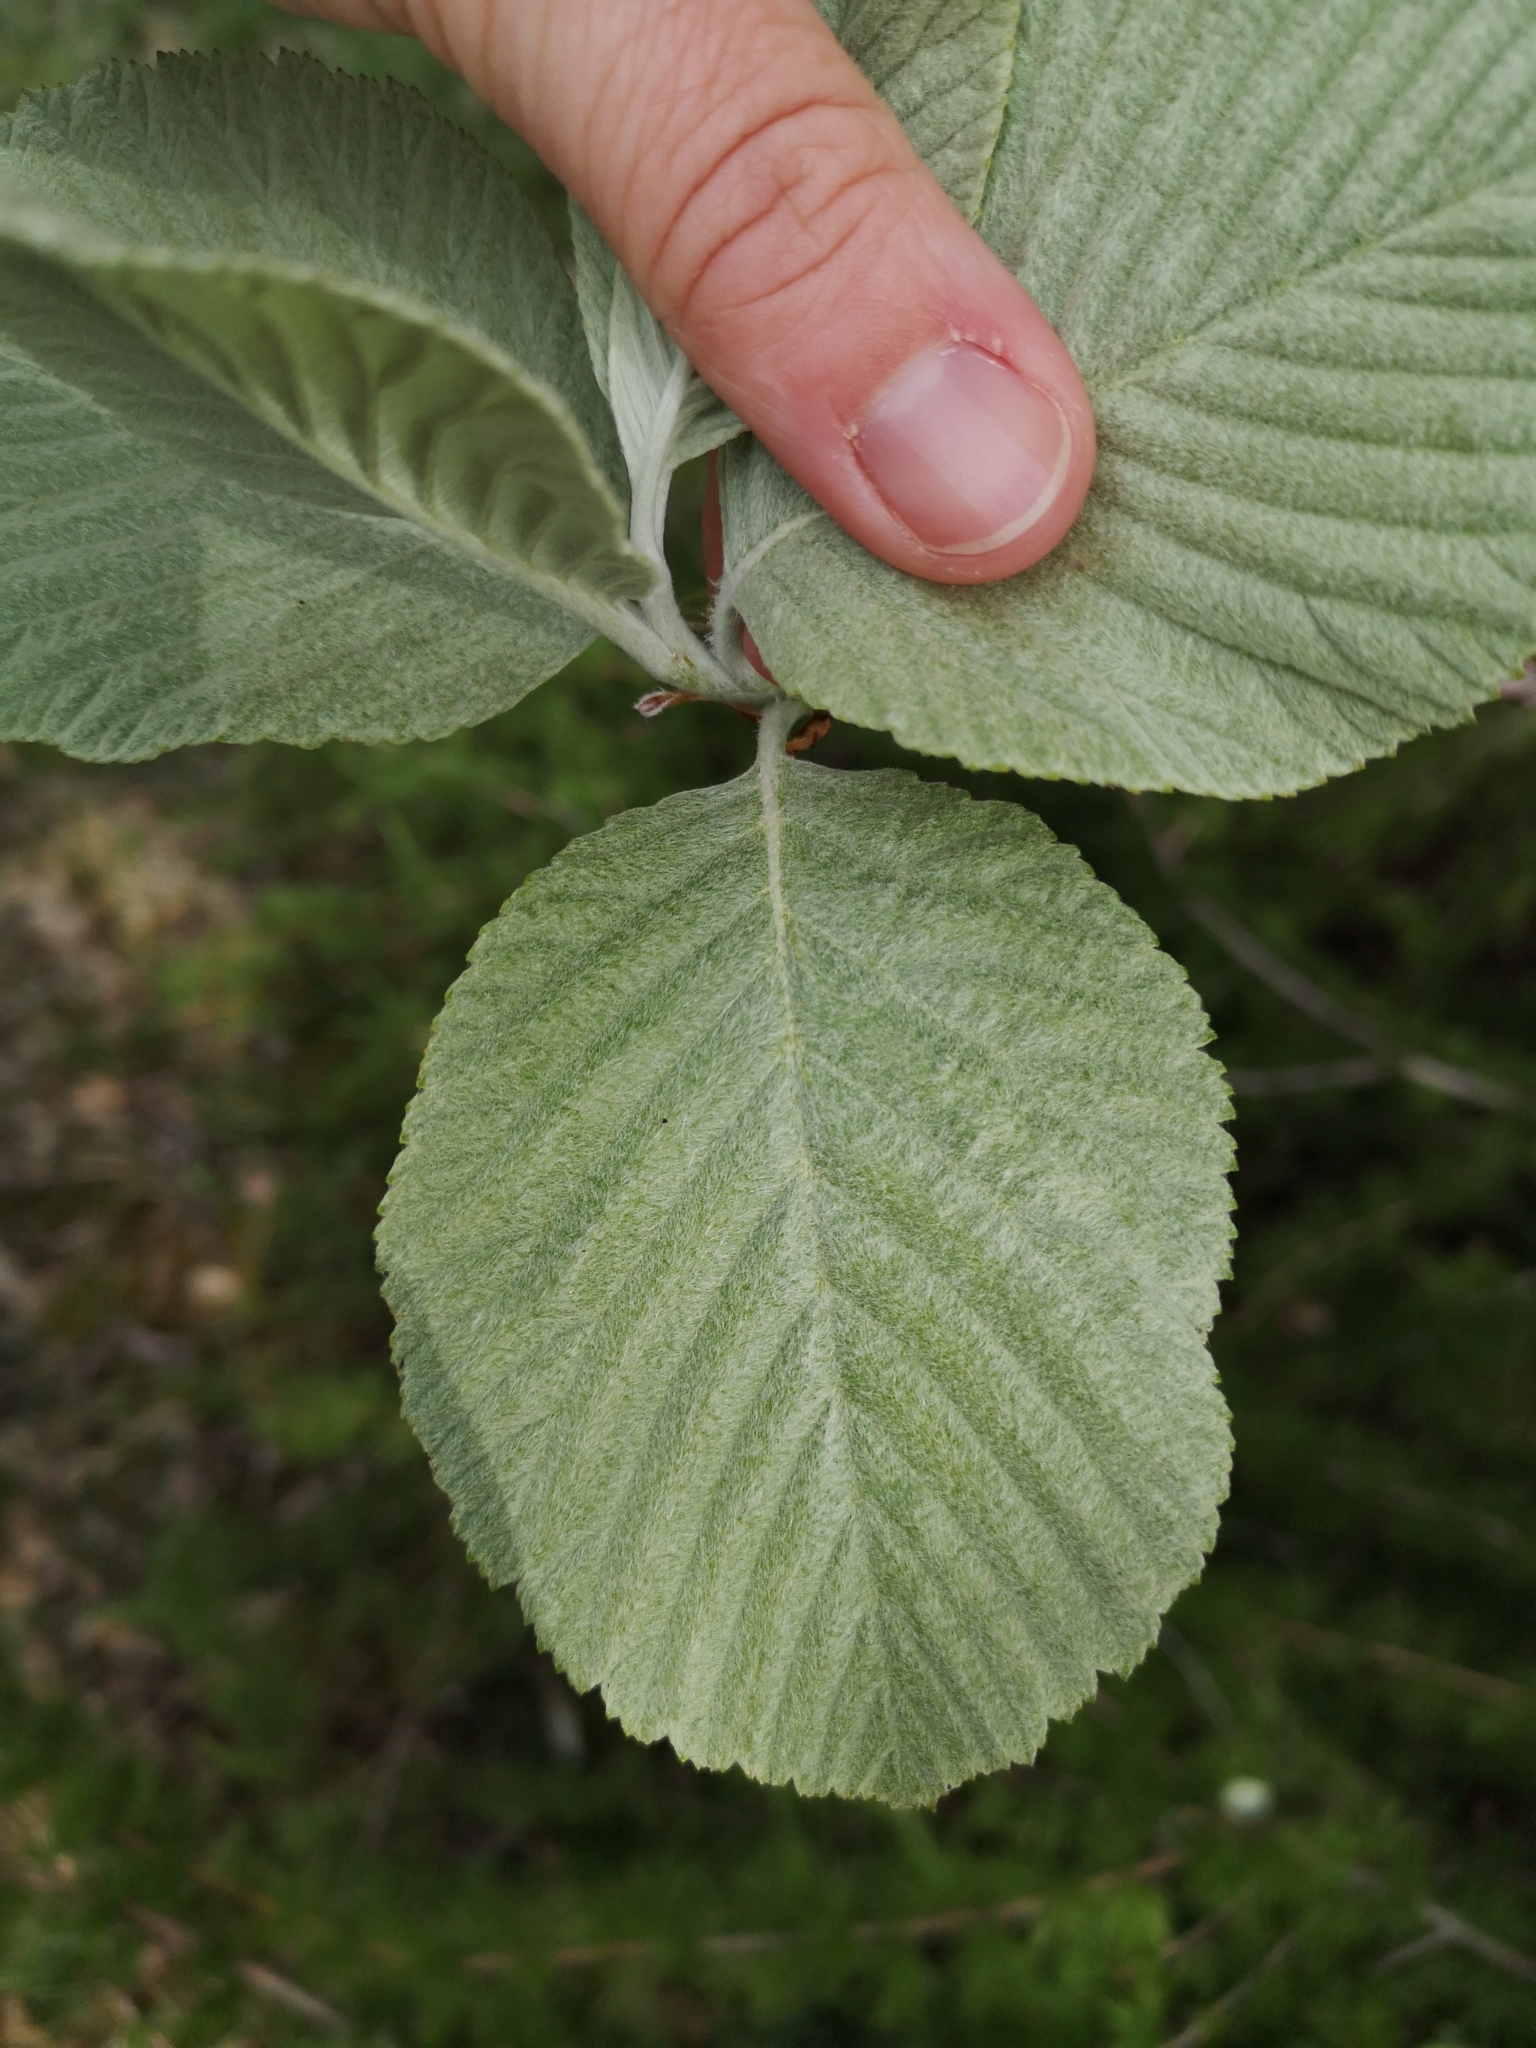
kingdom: Plantae
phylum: Tracheophyta
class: Magnoliopsida
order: Rosales
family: Rosaceae
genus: Aria
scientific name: Aria edulis
